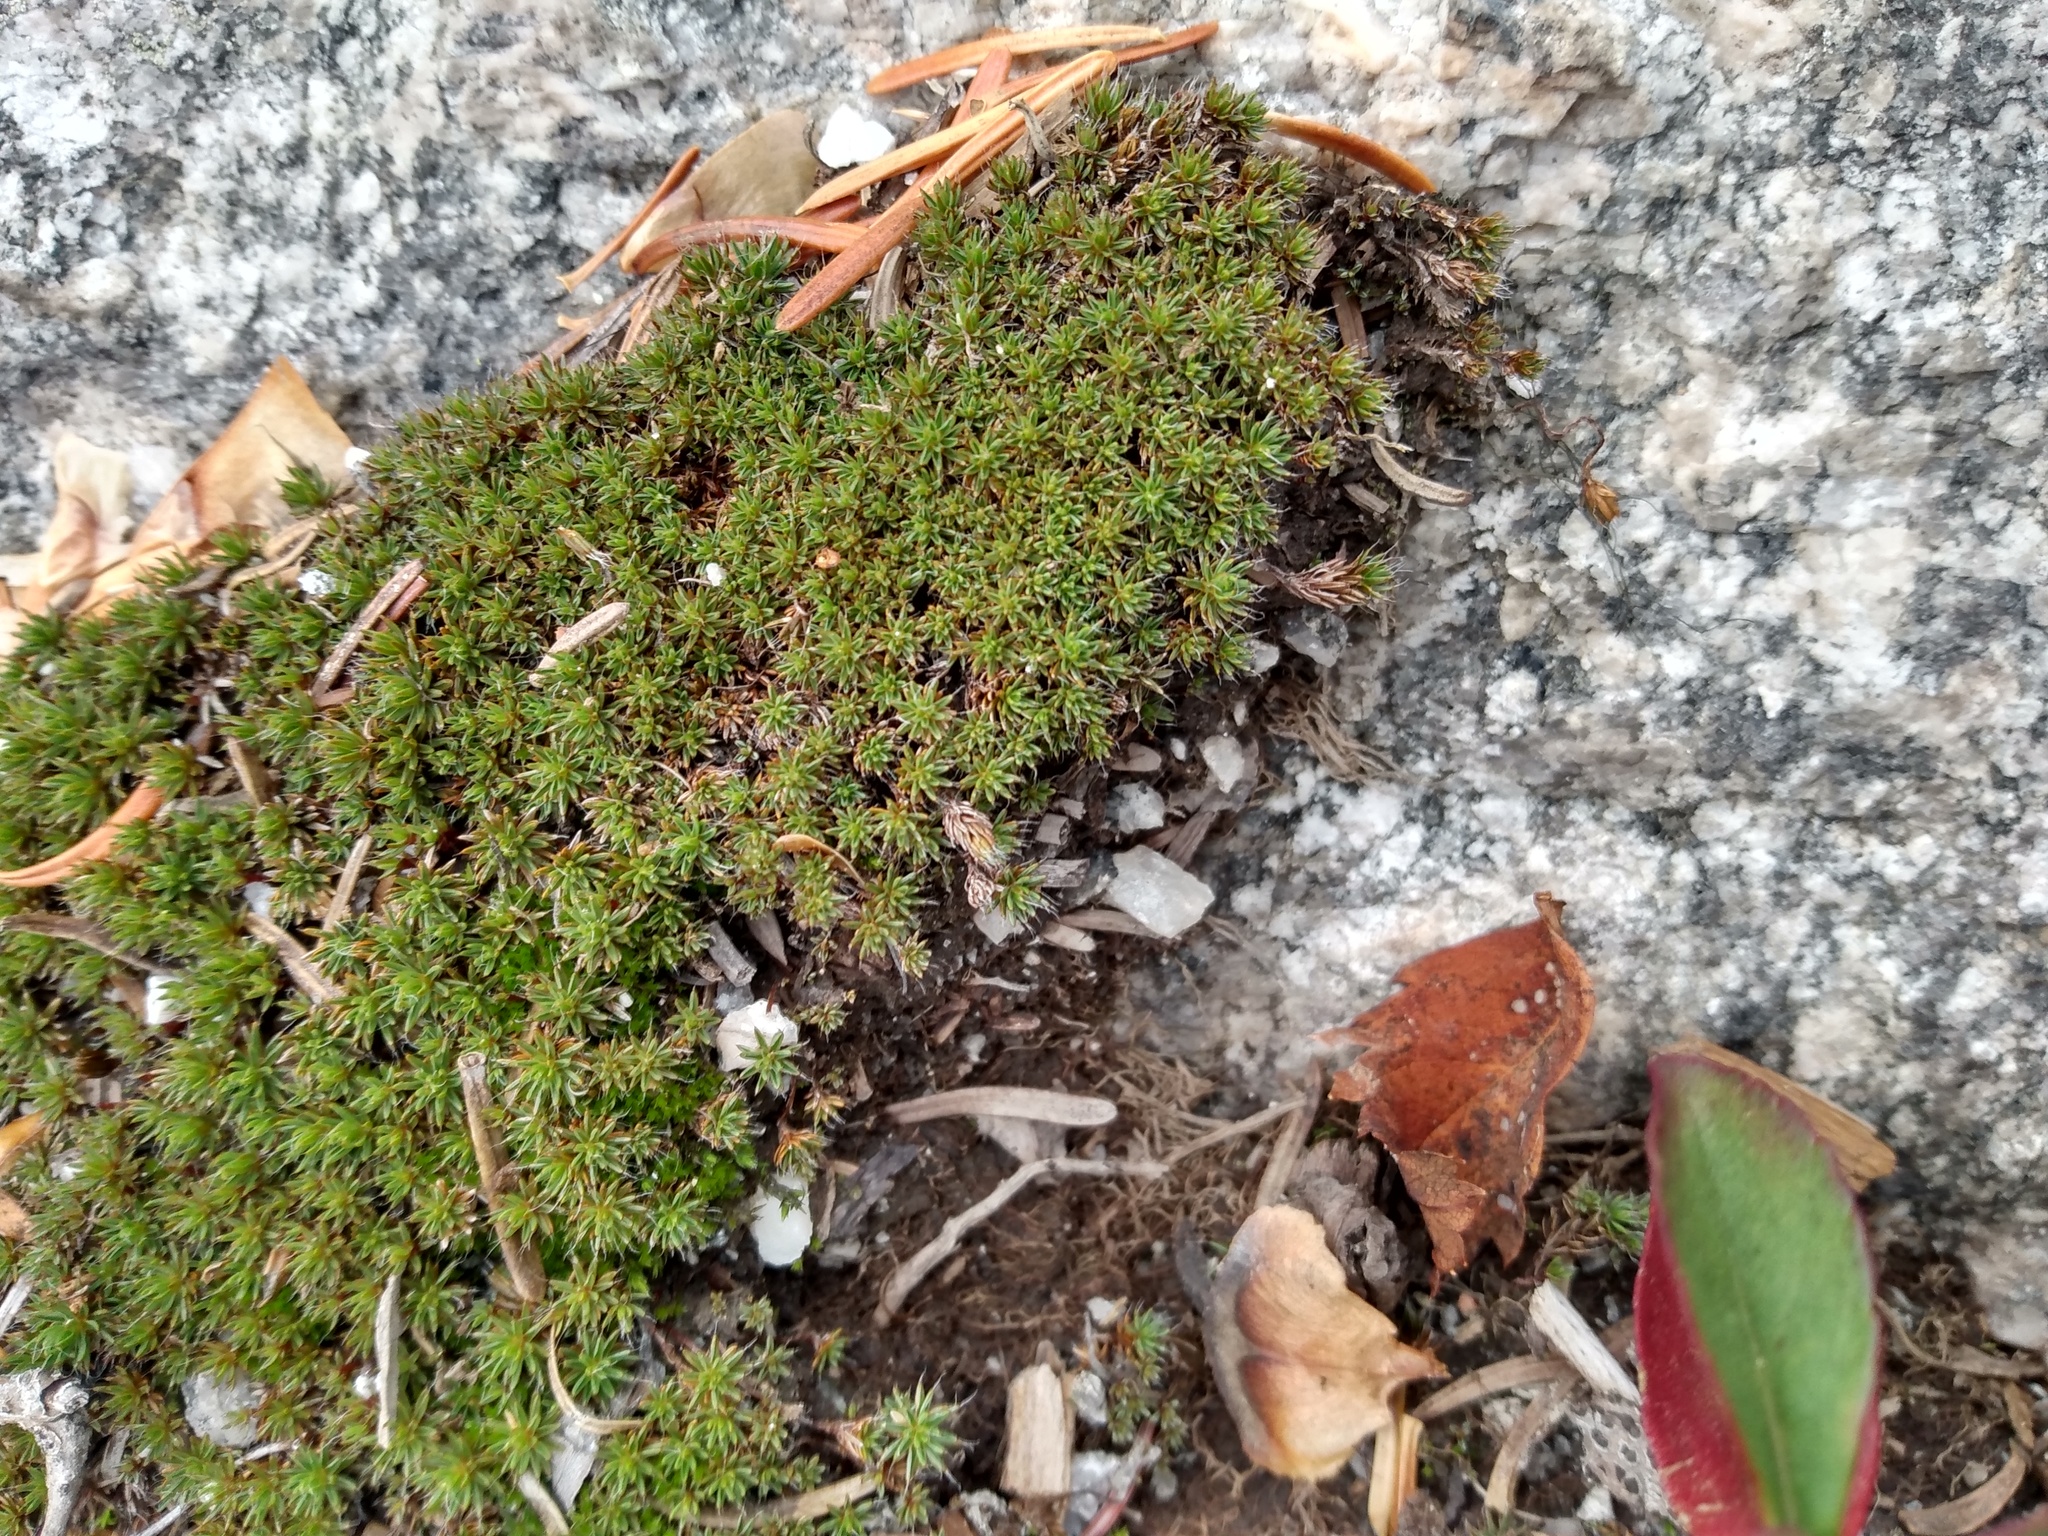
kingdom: Plantae
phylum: Bryophyta
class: Polytrichopsida
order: Polytrichales
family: Polytrichaceae
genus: Polytrichum
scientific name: Polytrichum piliferum
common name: Bristly haircap
